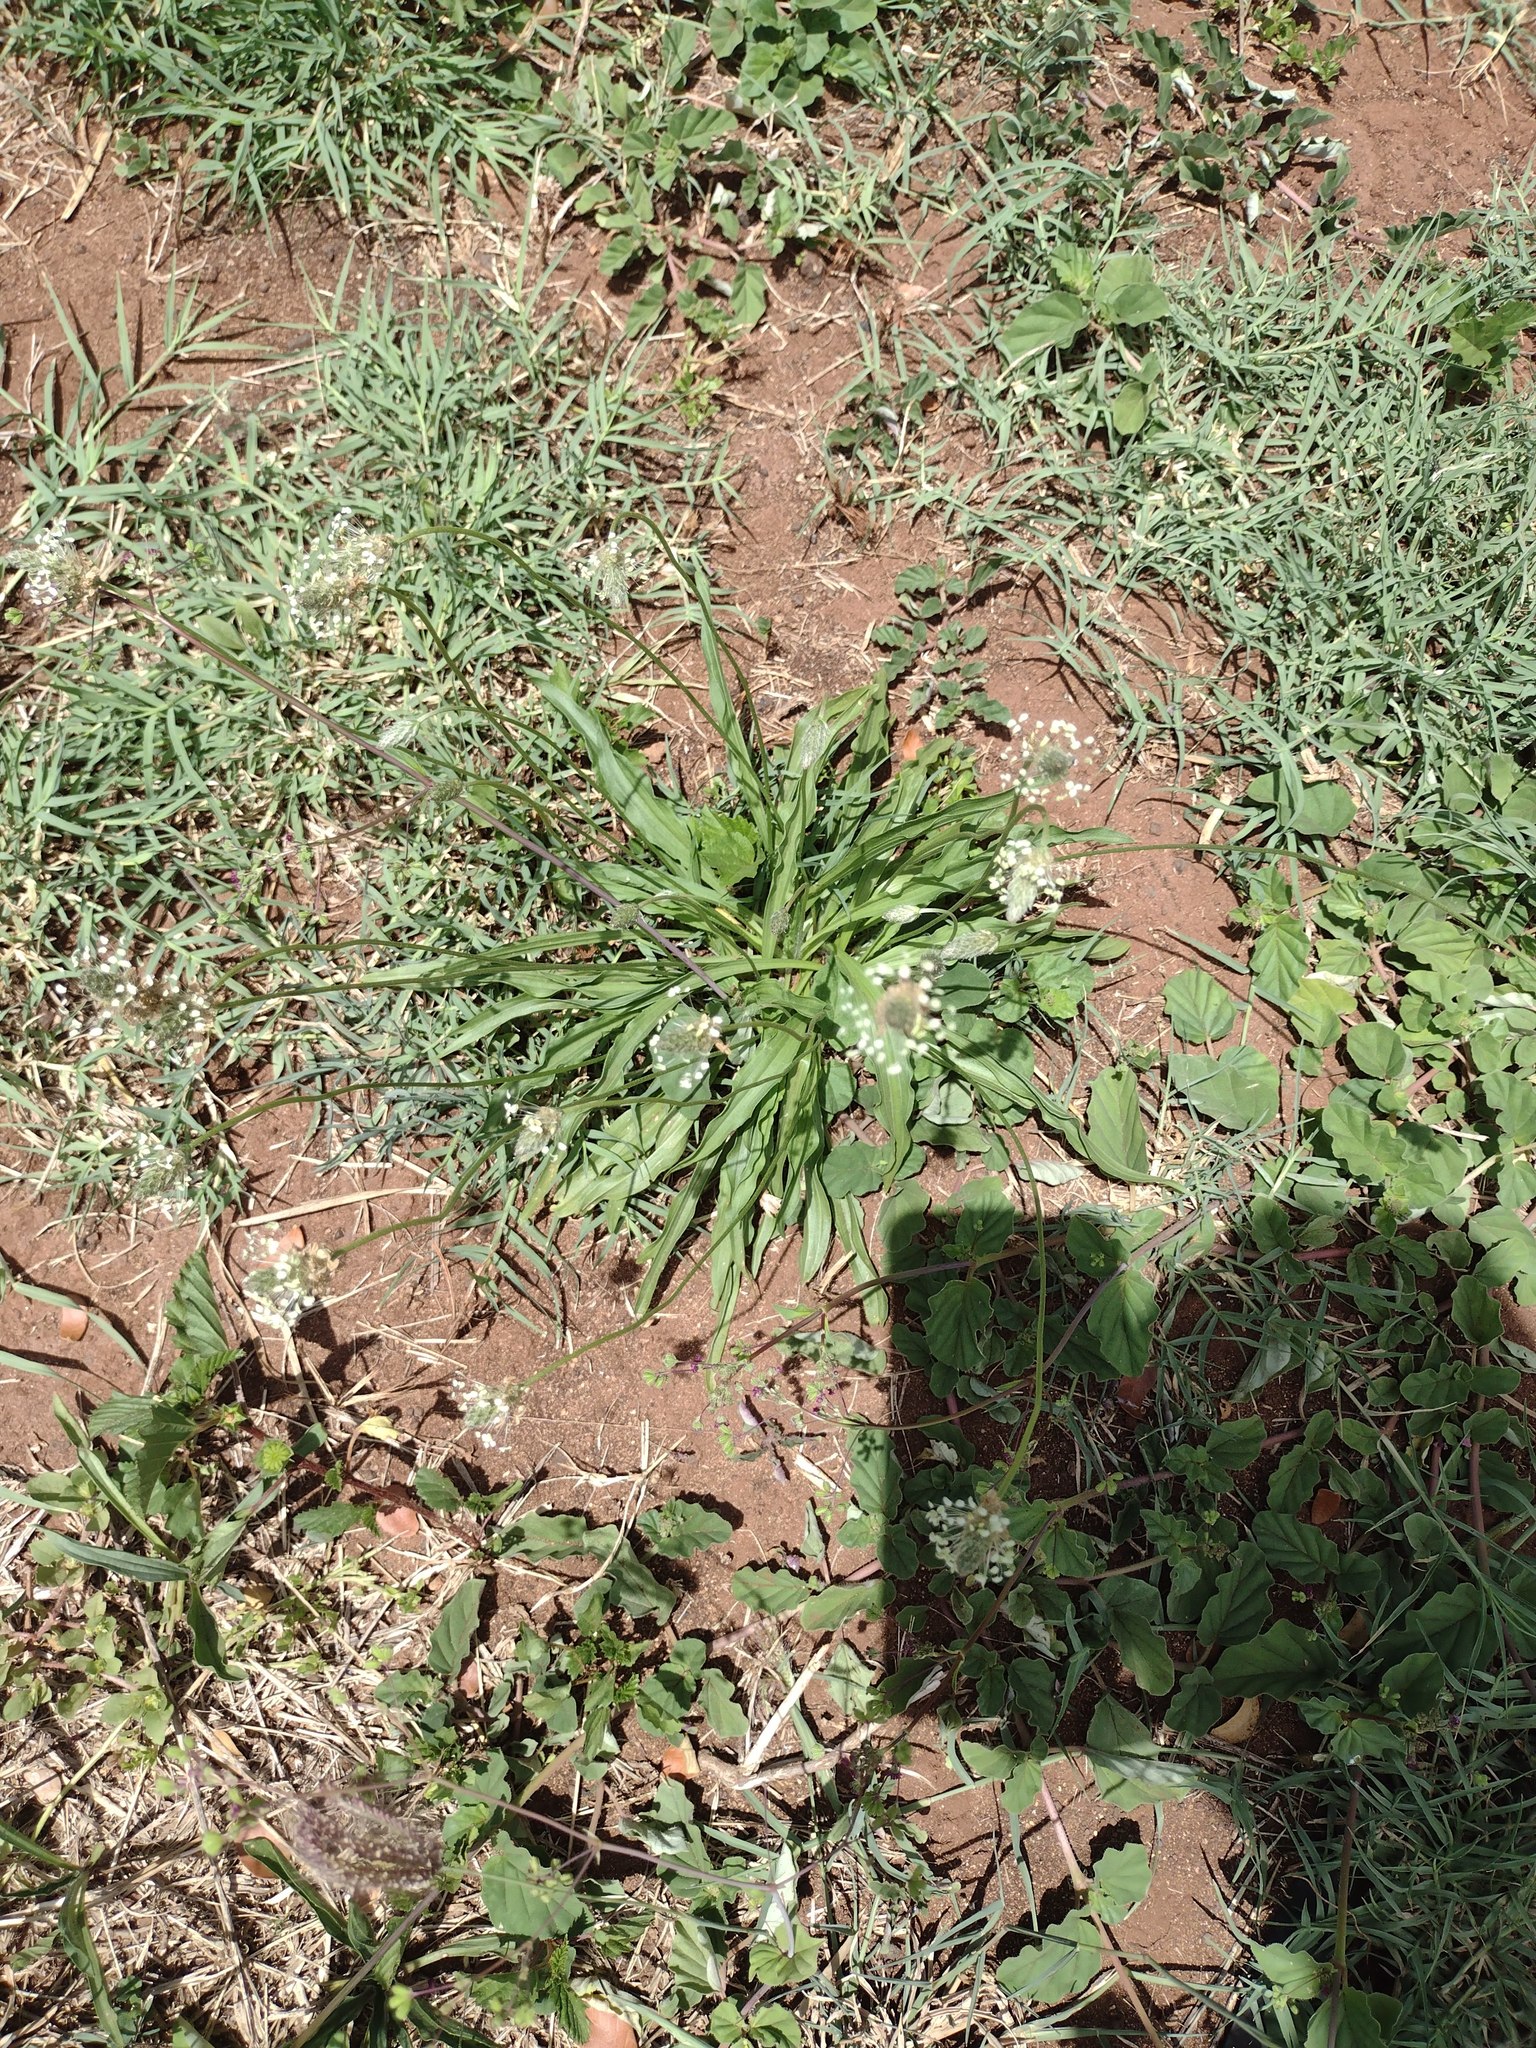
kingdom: Plantae
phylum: Tracheophyta
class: Magnoliopsida
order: Lamiales
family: Plantaginaceae
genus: Plantago
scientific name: Plantago lanceolata
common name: Ribwort plantain
